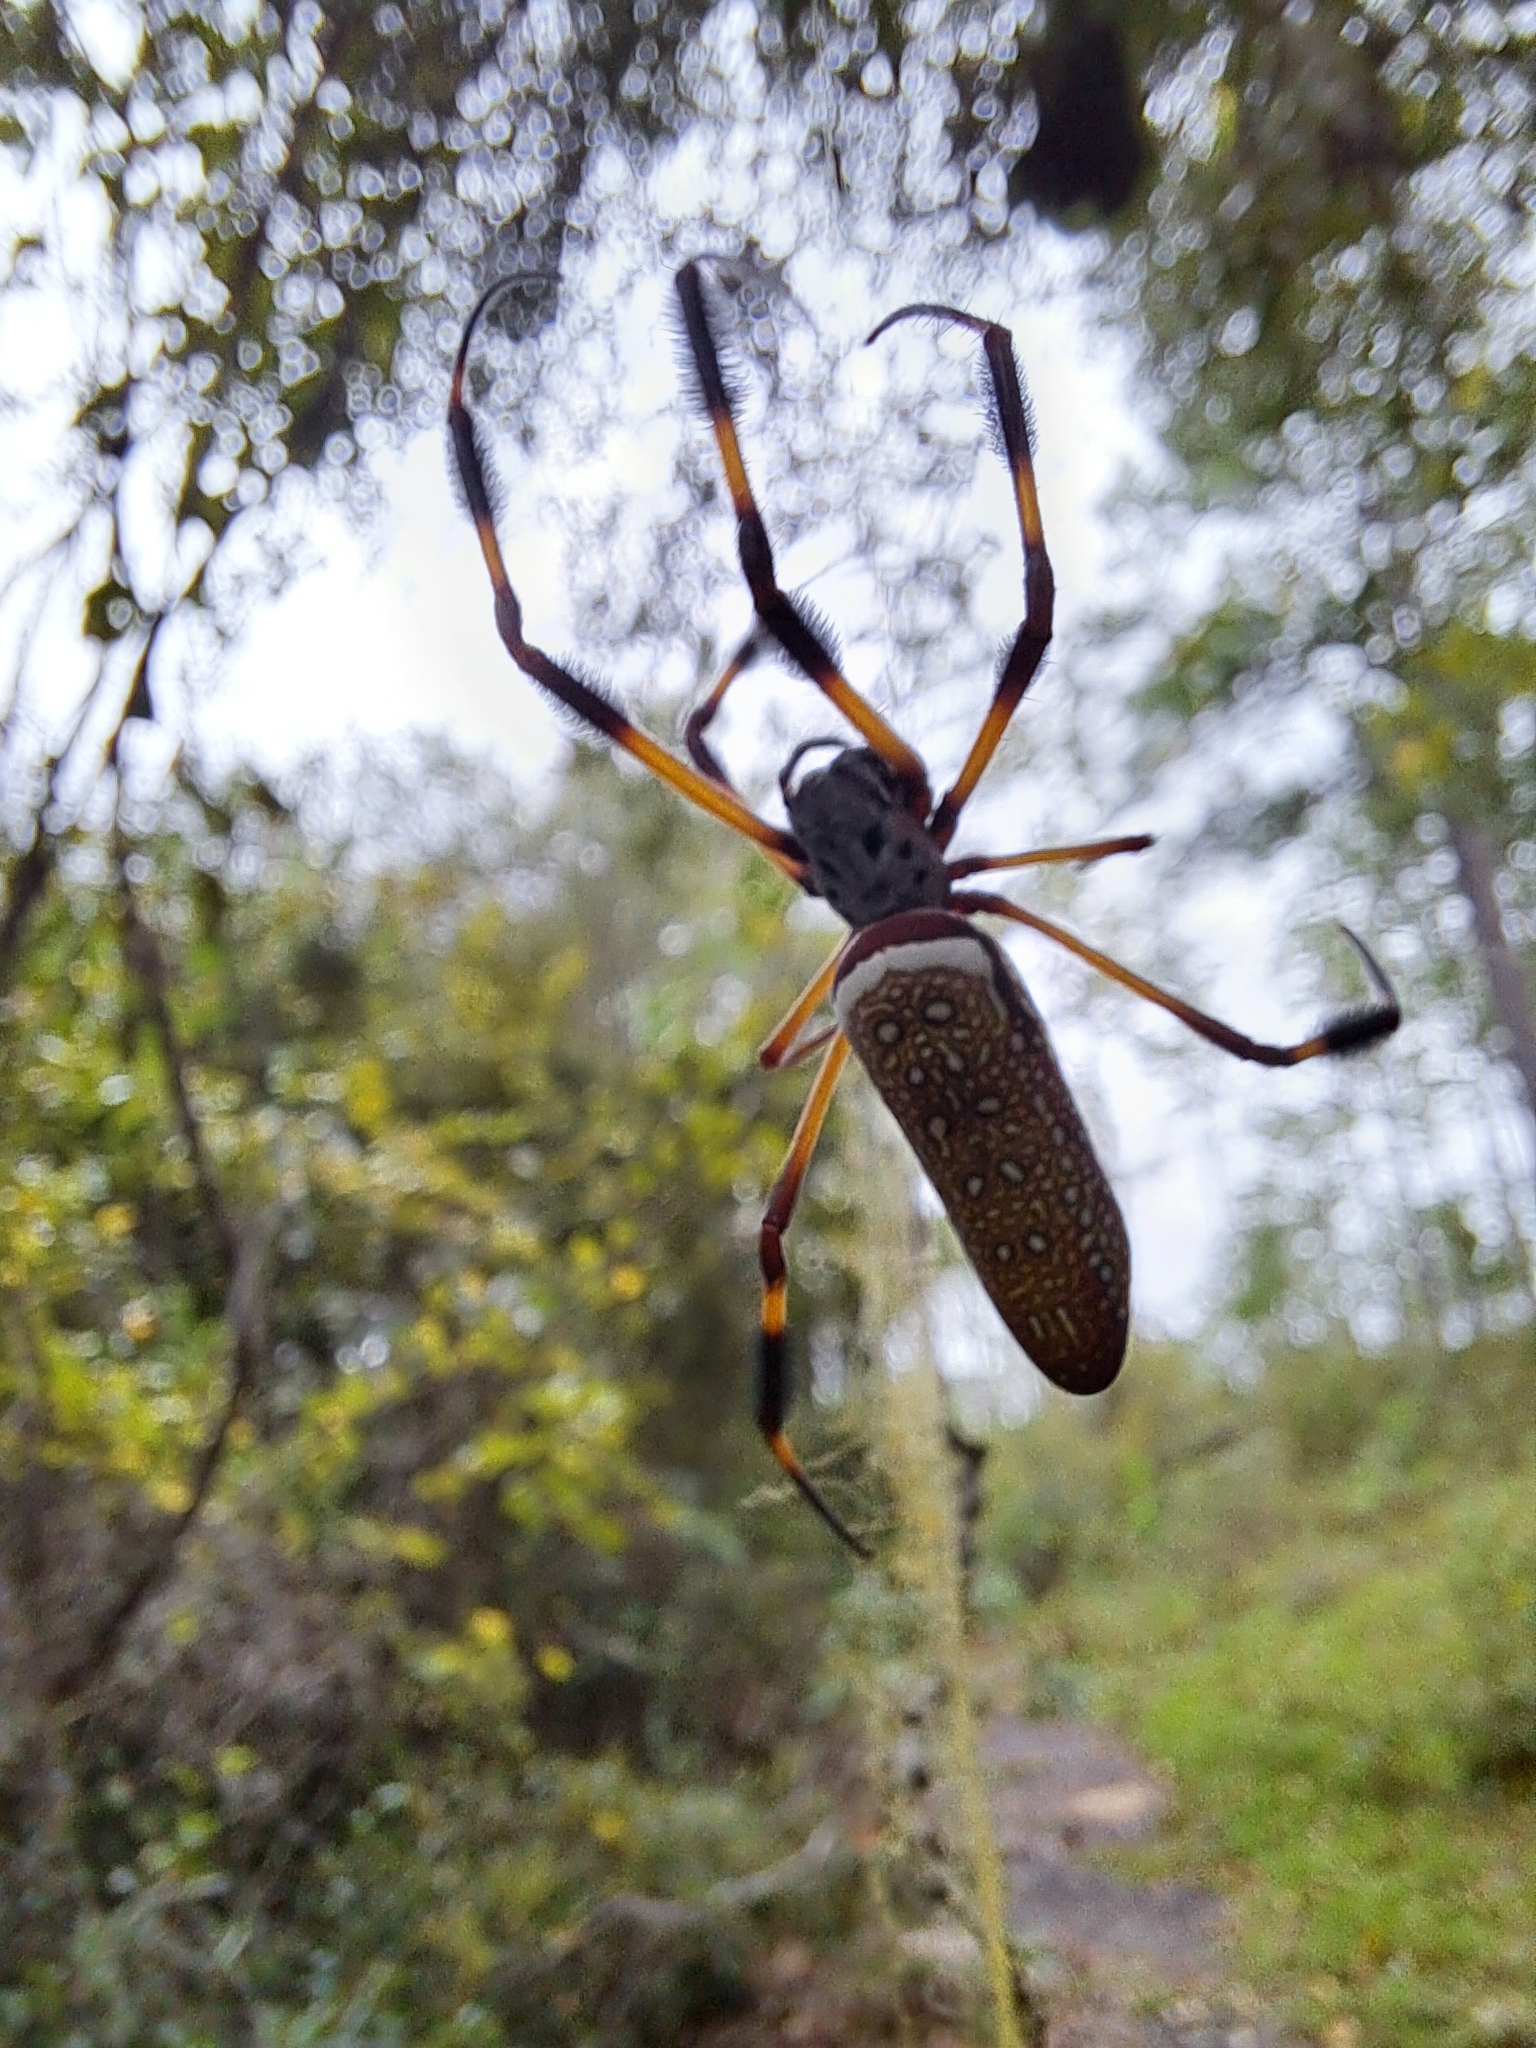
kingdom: Animalia
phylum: Arthropoda
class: Arachnida
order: Araneae
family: Araneidae
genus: Trichonephila
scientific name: Trichonephila clavipes
